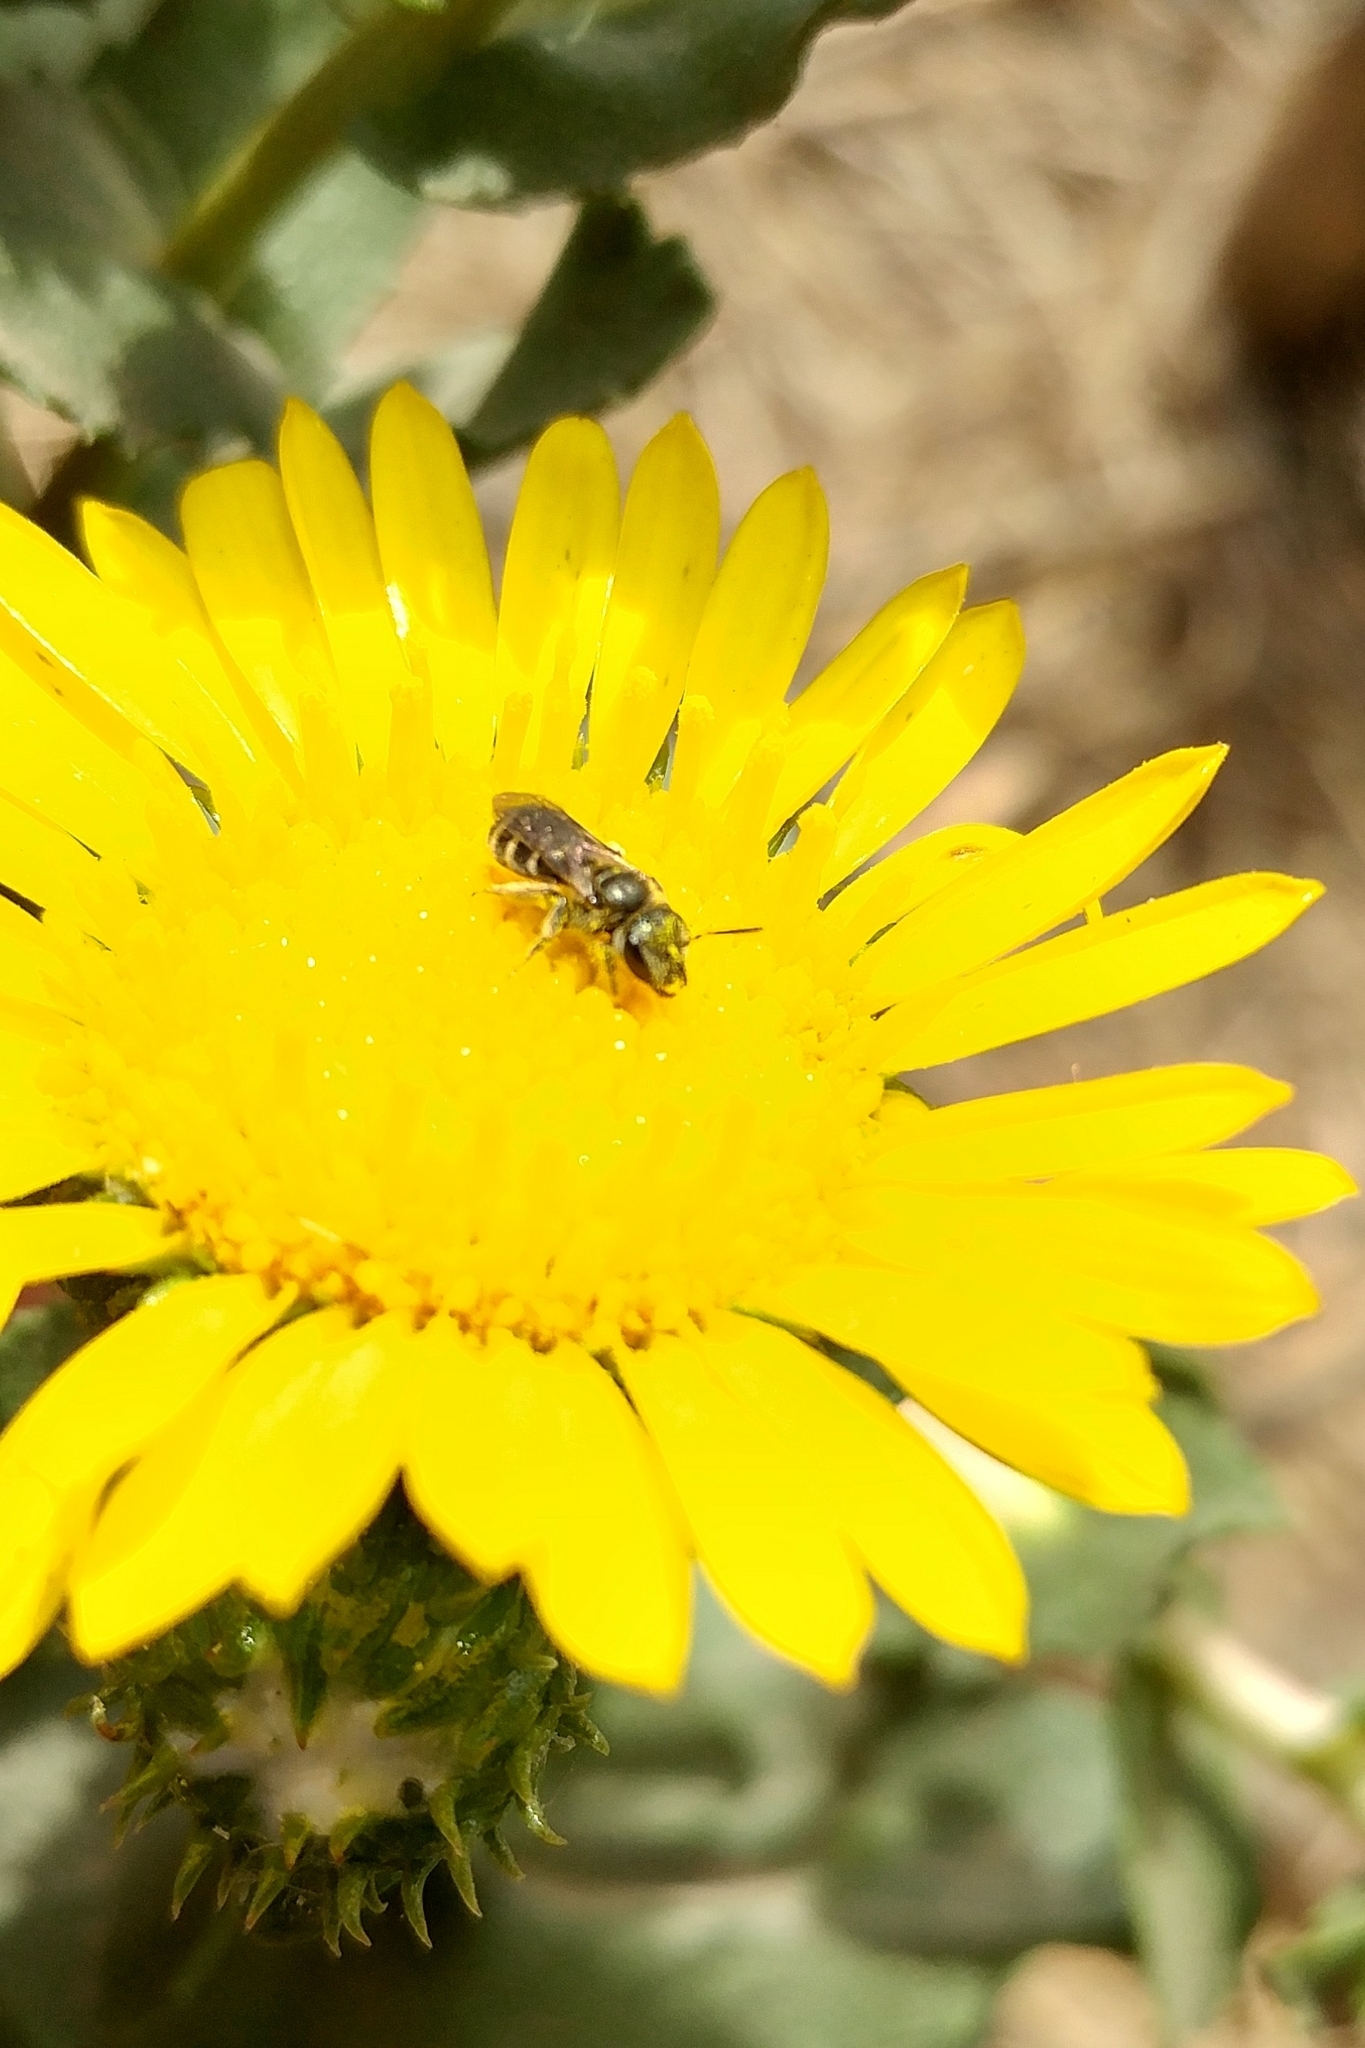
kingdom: Plantae
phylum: Tracheophyta
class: Magnoliopsida
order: Asterales
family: Asteraceae
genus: Grindelia
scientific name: Grindelia hirsutula
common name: Hairy gumweed
